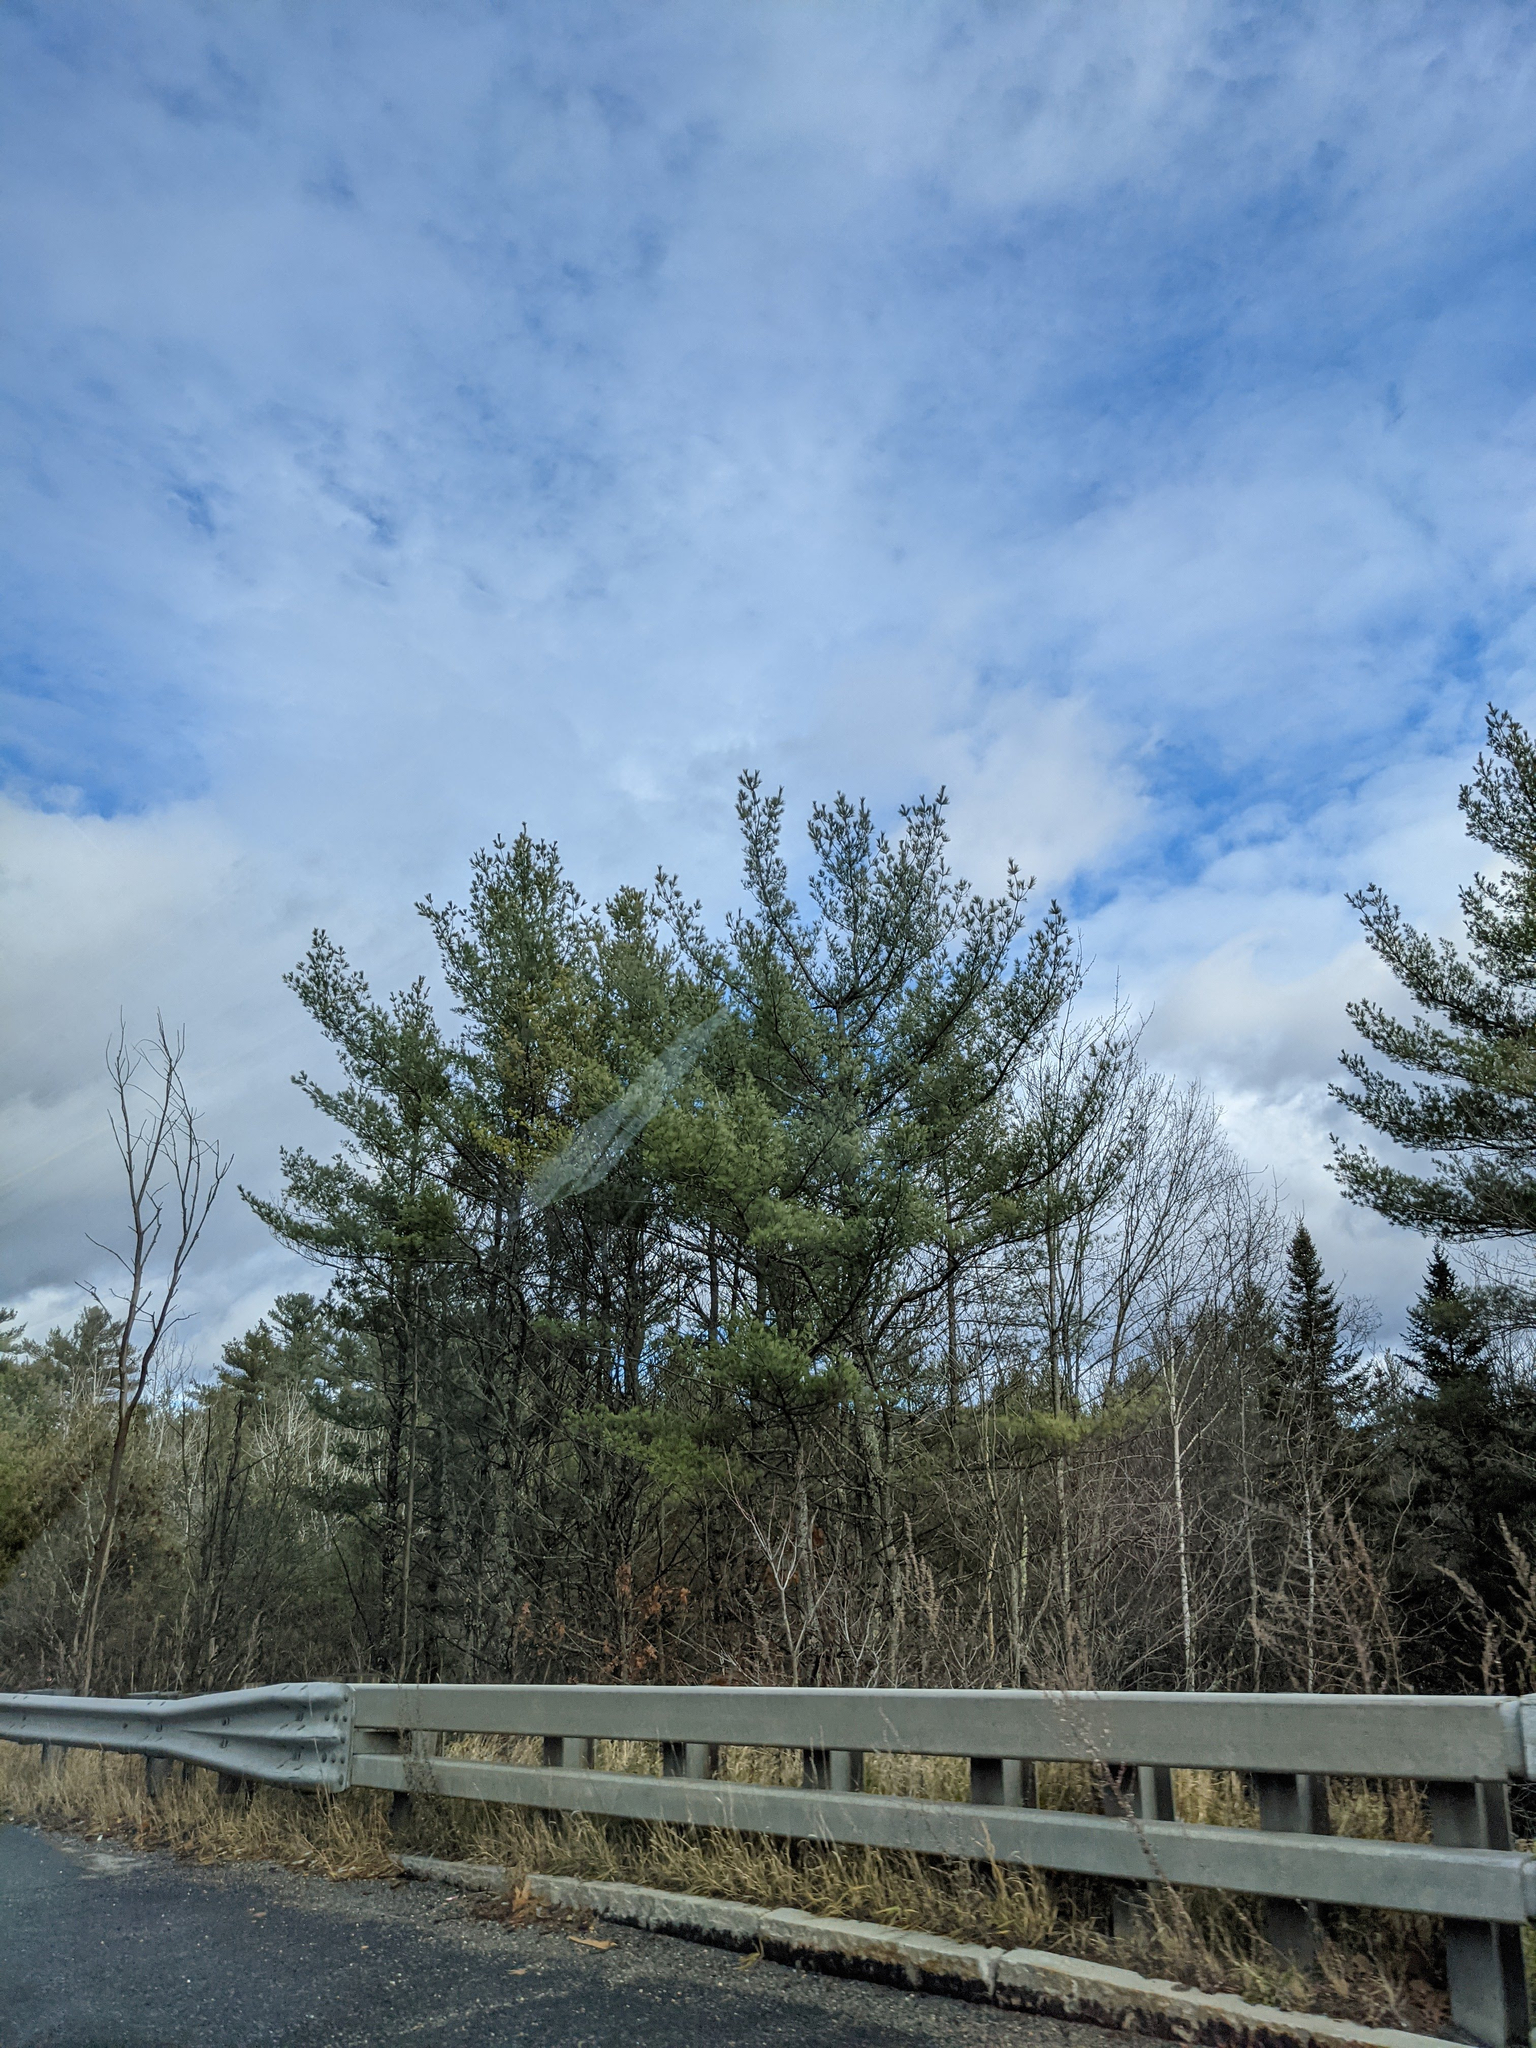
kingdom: Plantae
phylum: Tracheophyta
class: Pinopsida
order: Pinales
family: Pinaceae
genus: Pinus
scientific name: Pinus strobus
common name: Weymouth pine
